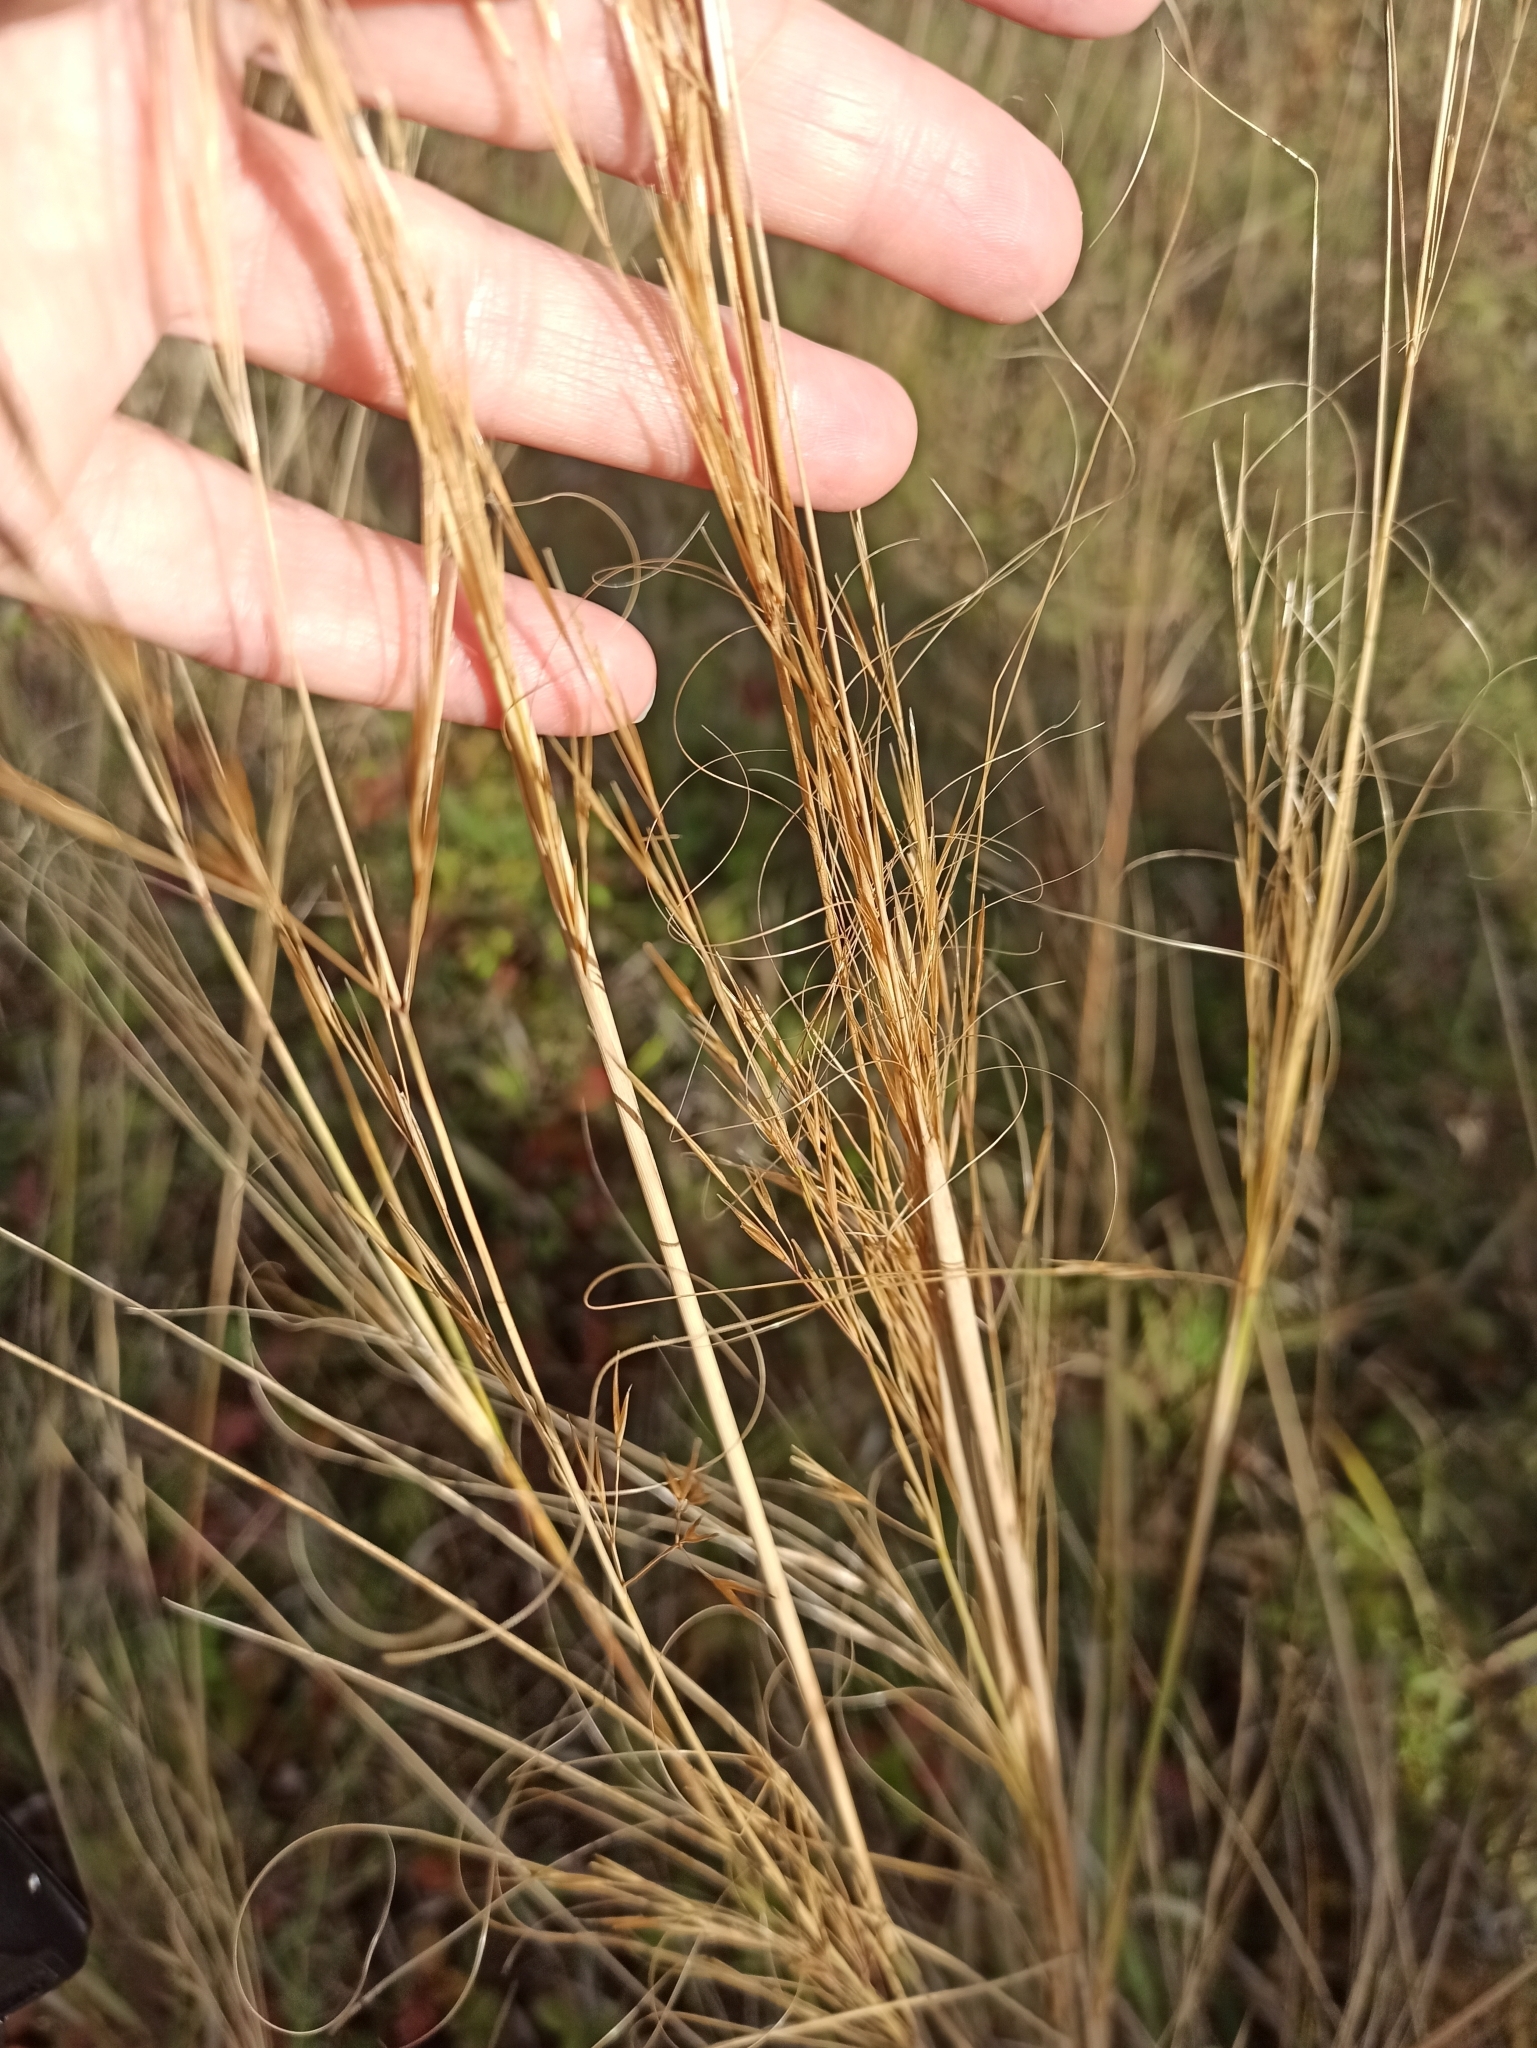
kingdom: Plantae
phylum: Tracheophyta
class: Liliopsida
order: Poales
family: Poaceae
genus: Stipa
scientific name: Stipa capillata
